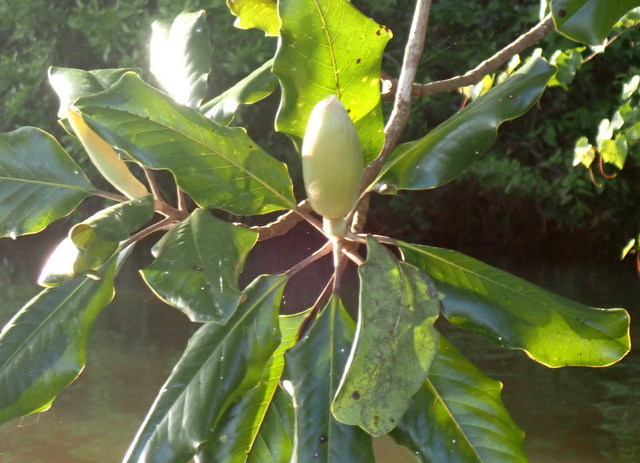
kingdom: Plantae
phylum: Tracheophyta
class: Magnoliopsida
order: Magnoliales
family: Magnoliaceae
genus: Magnolia
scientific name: Magnolia grandiflora
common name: Southern magnolia
